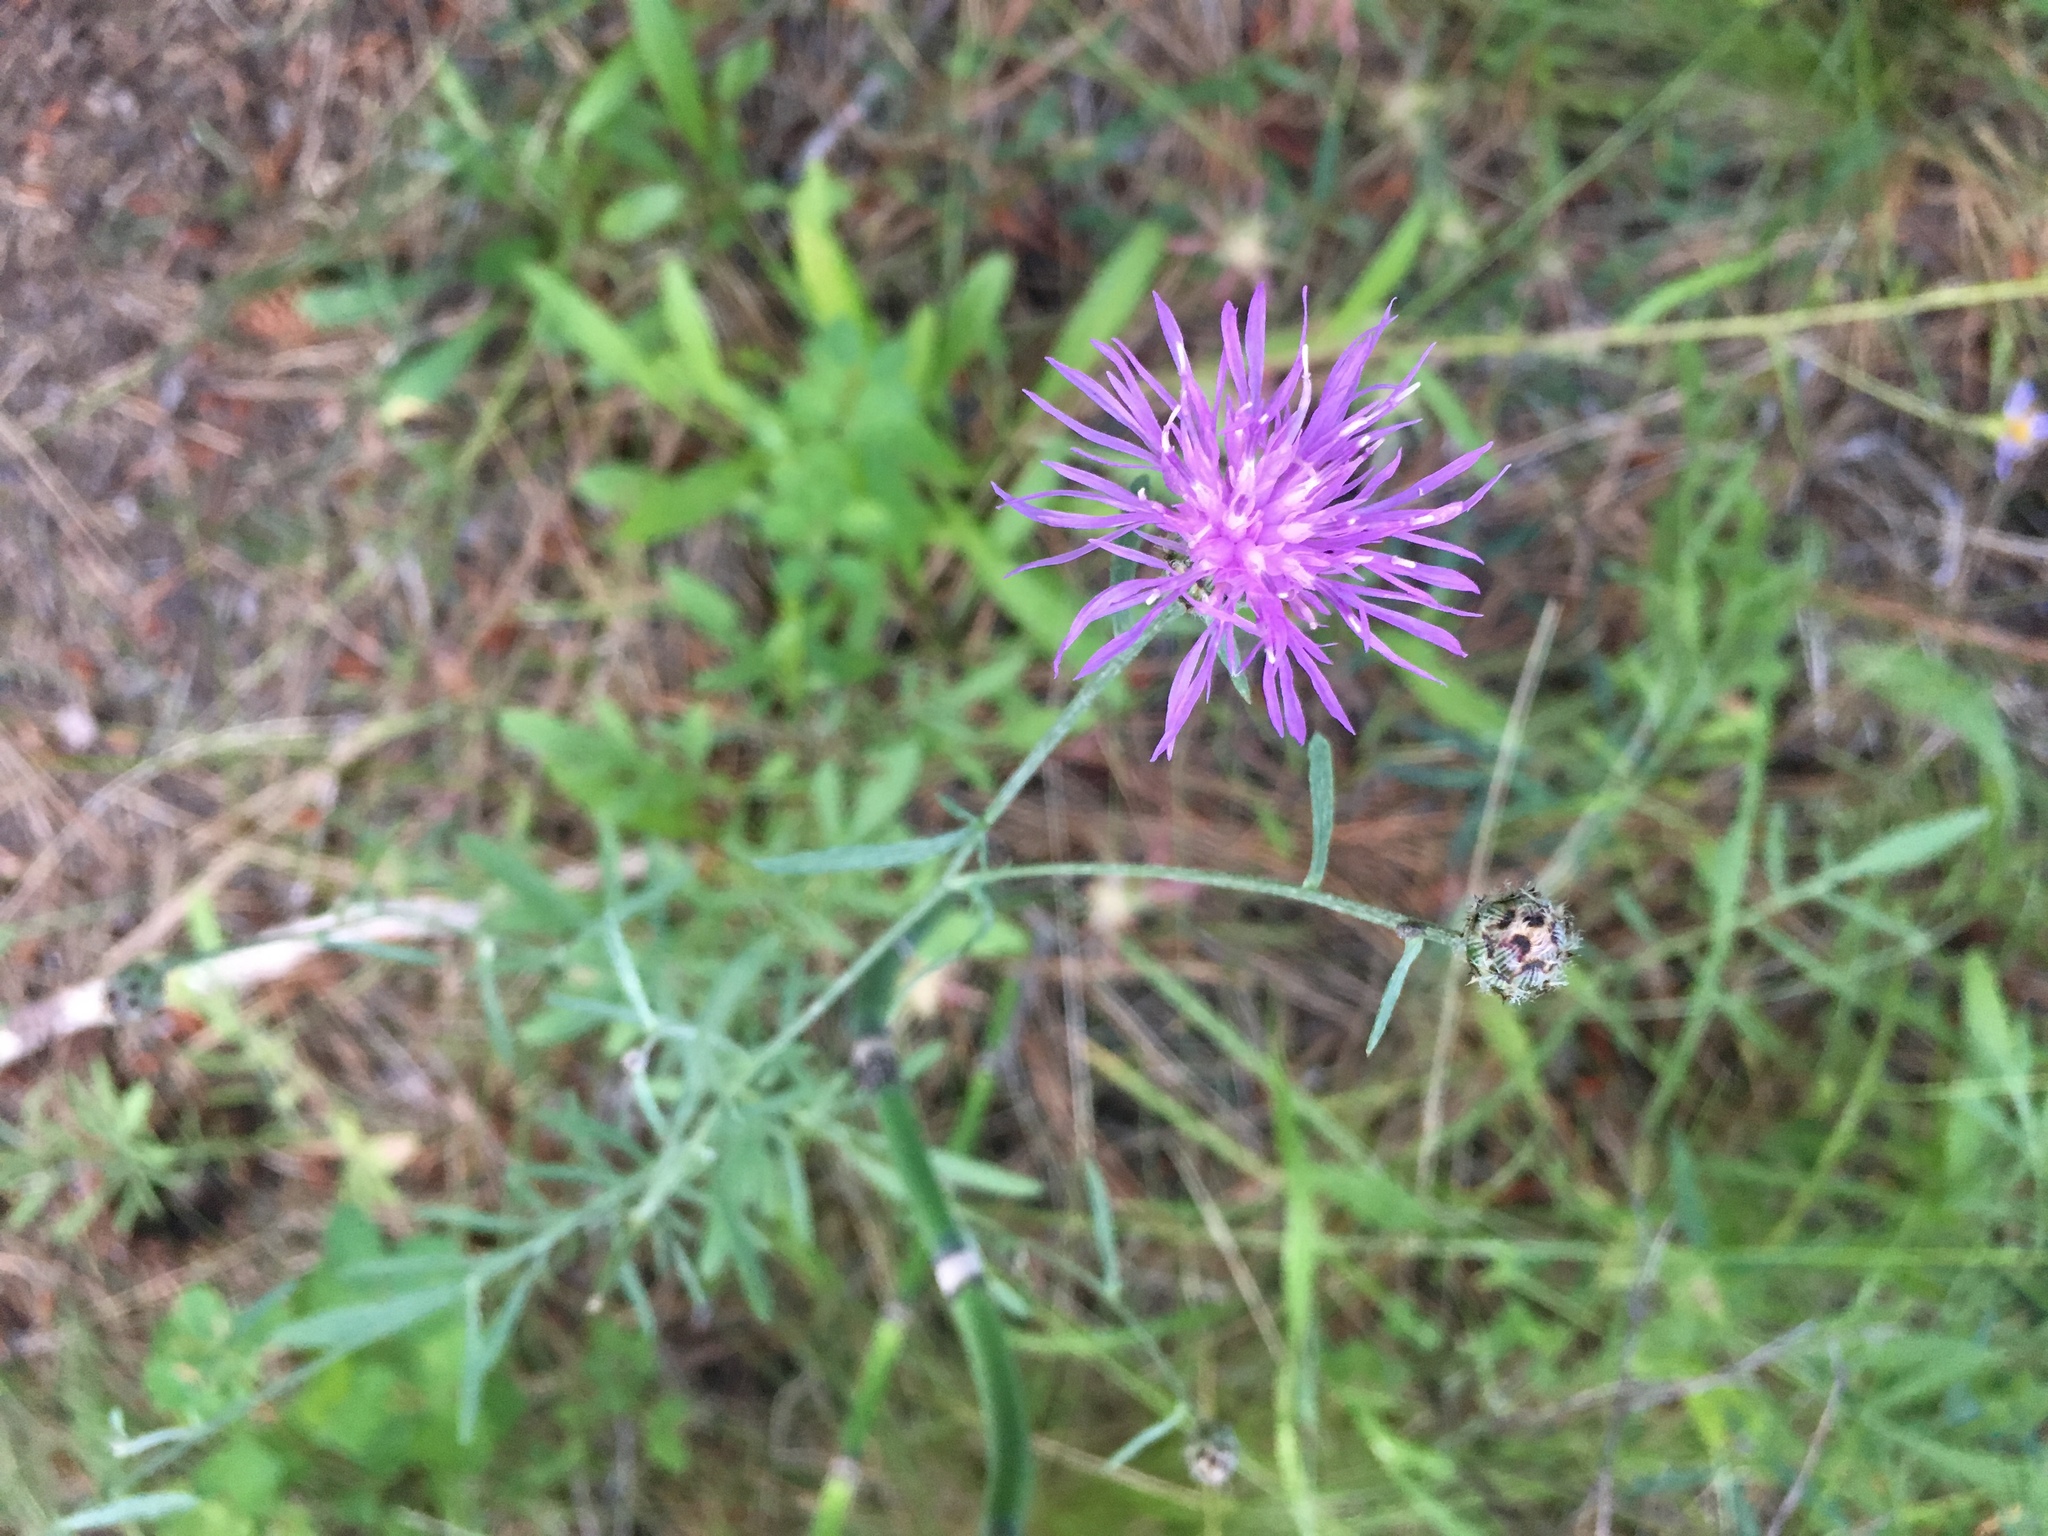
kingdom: Plantae
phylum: Tracheophyta
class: Magnoliopsida
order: Asterales
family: Asteraceae
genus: Centaurea
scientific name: Centaurea stoebe
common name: Spotted knapweed
